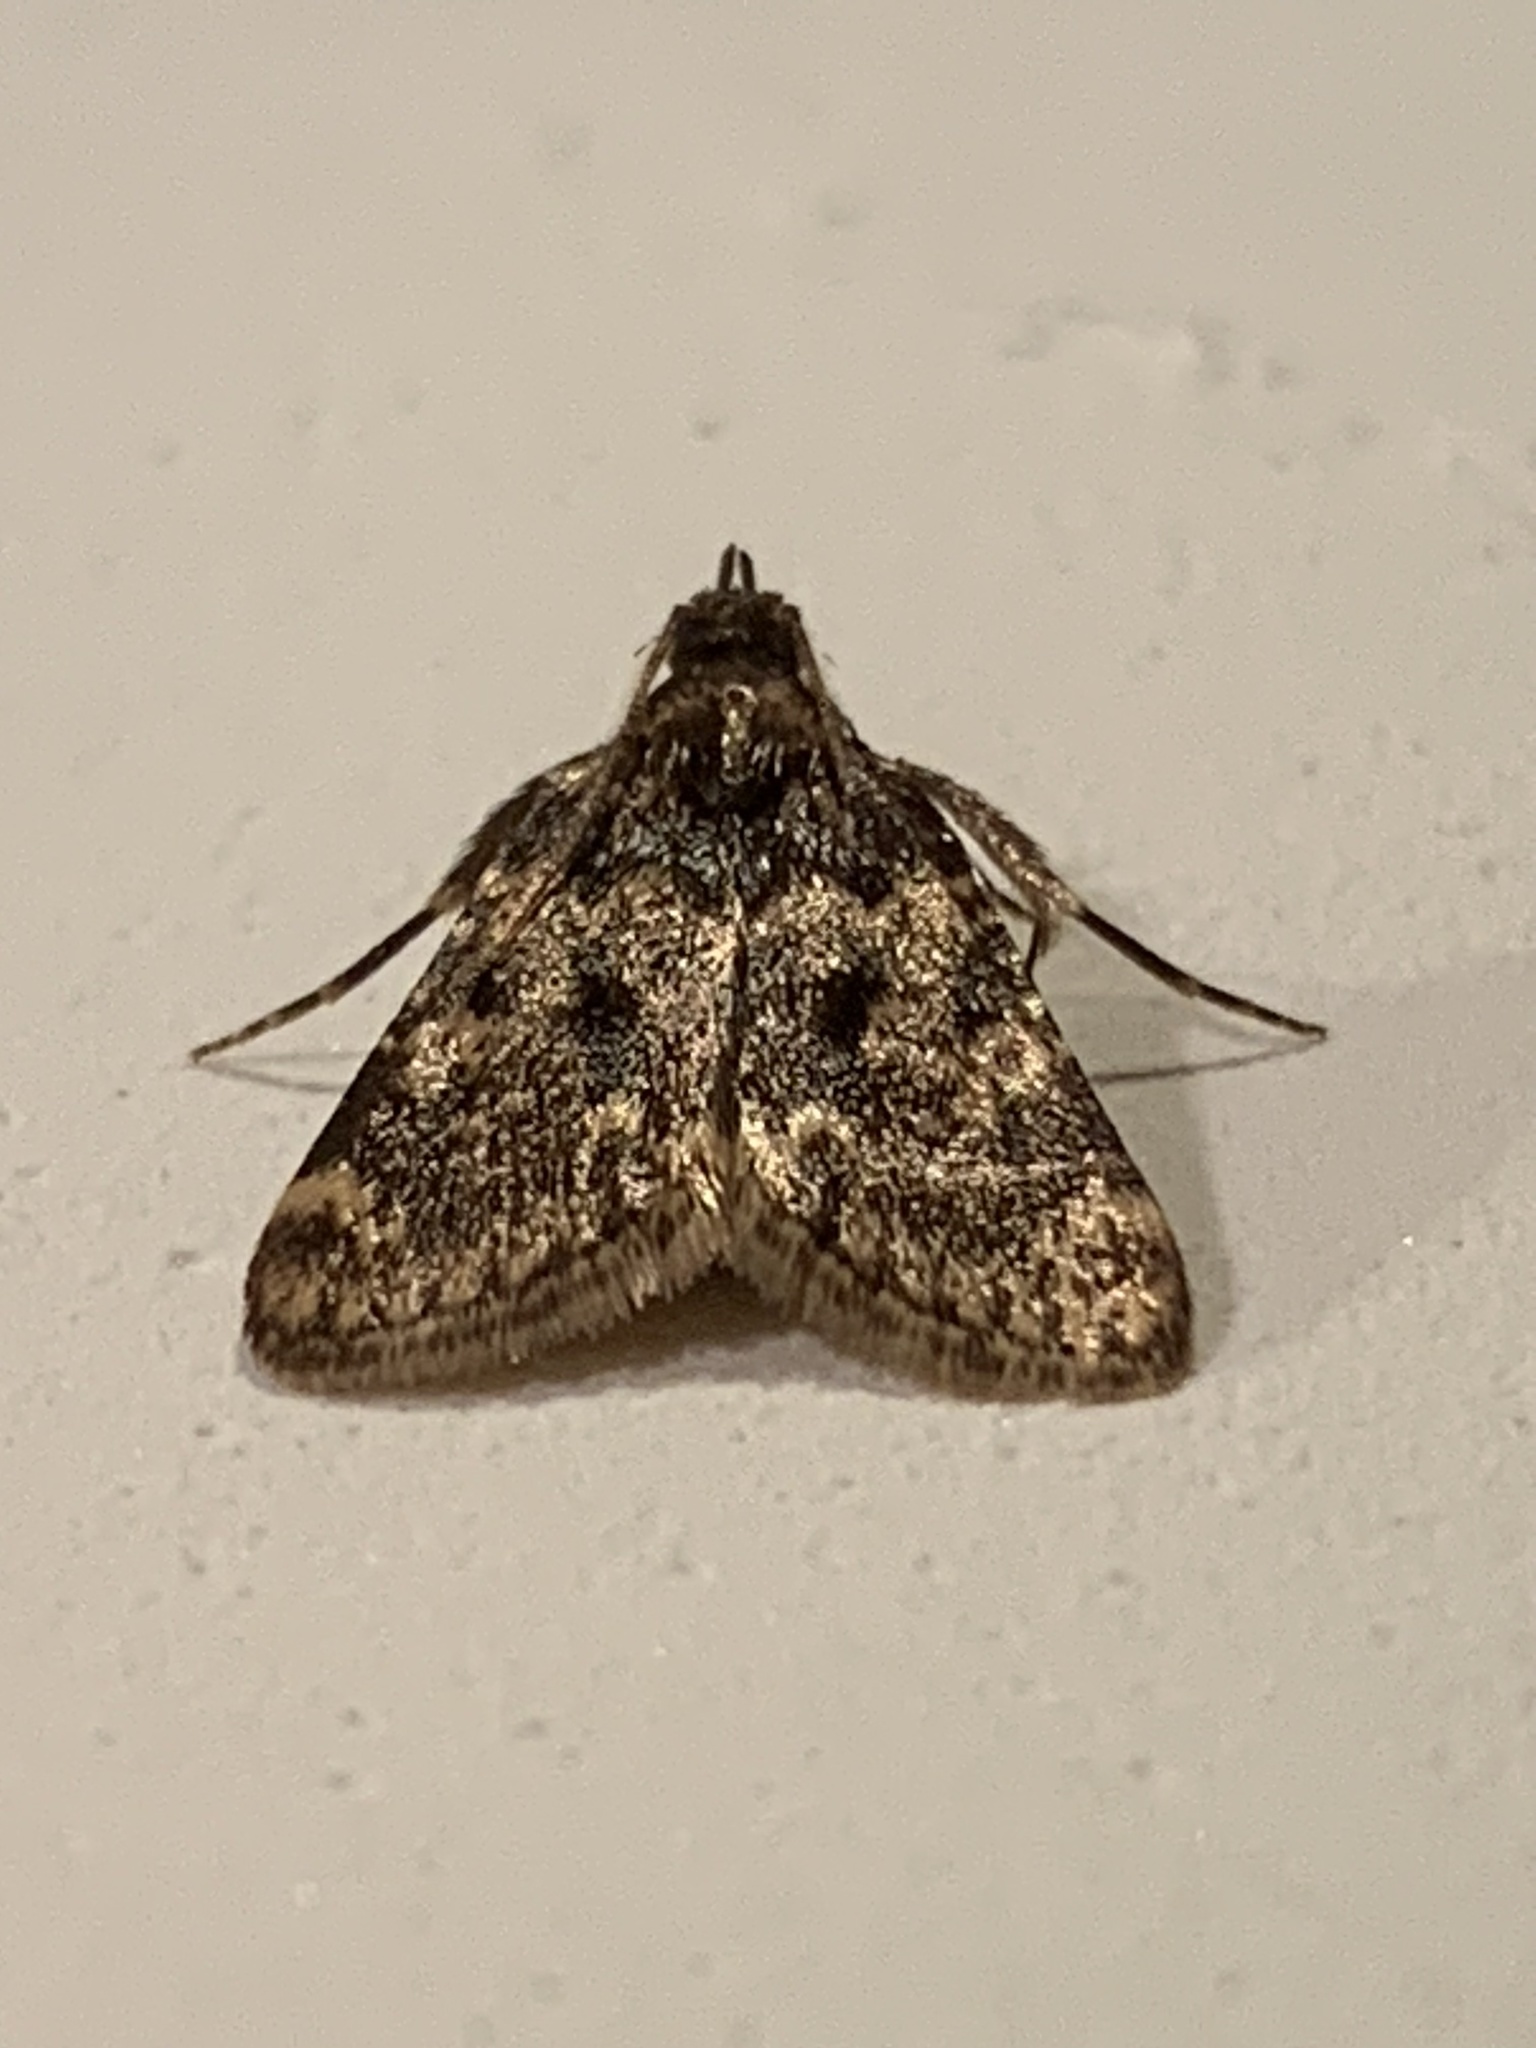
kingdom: Animalia
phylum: Arthropoda
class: Insecta
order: Lepidoptera
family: Pyralidae
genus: Aglossa
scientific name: Aglossa pinguinalis
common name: Large tabby
